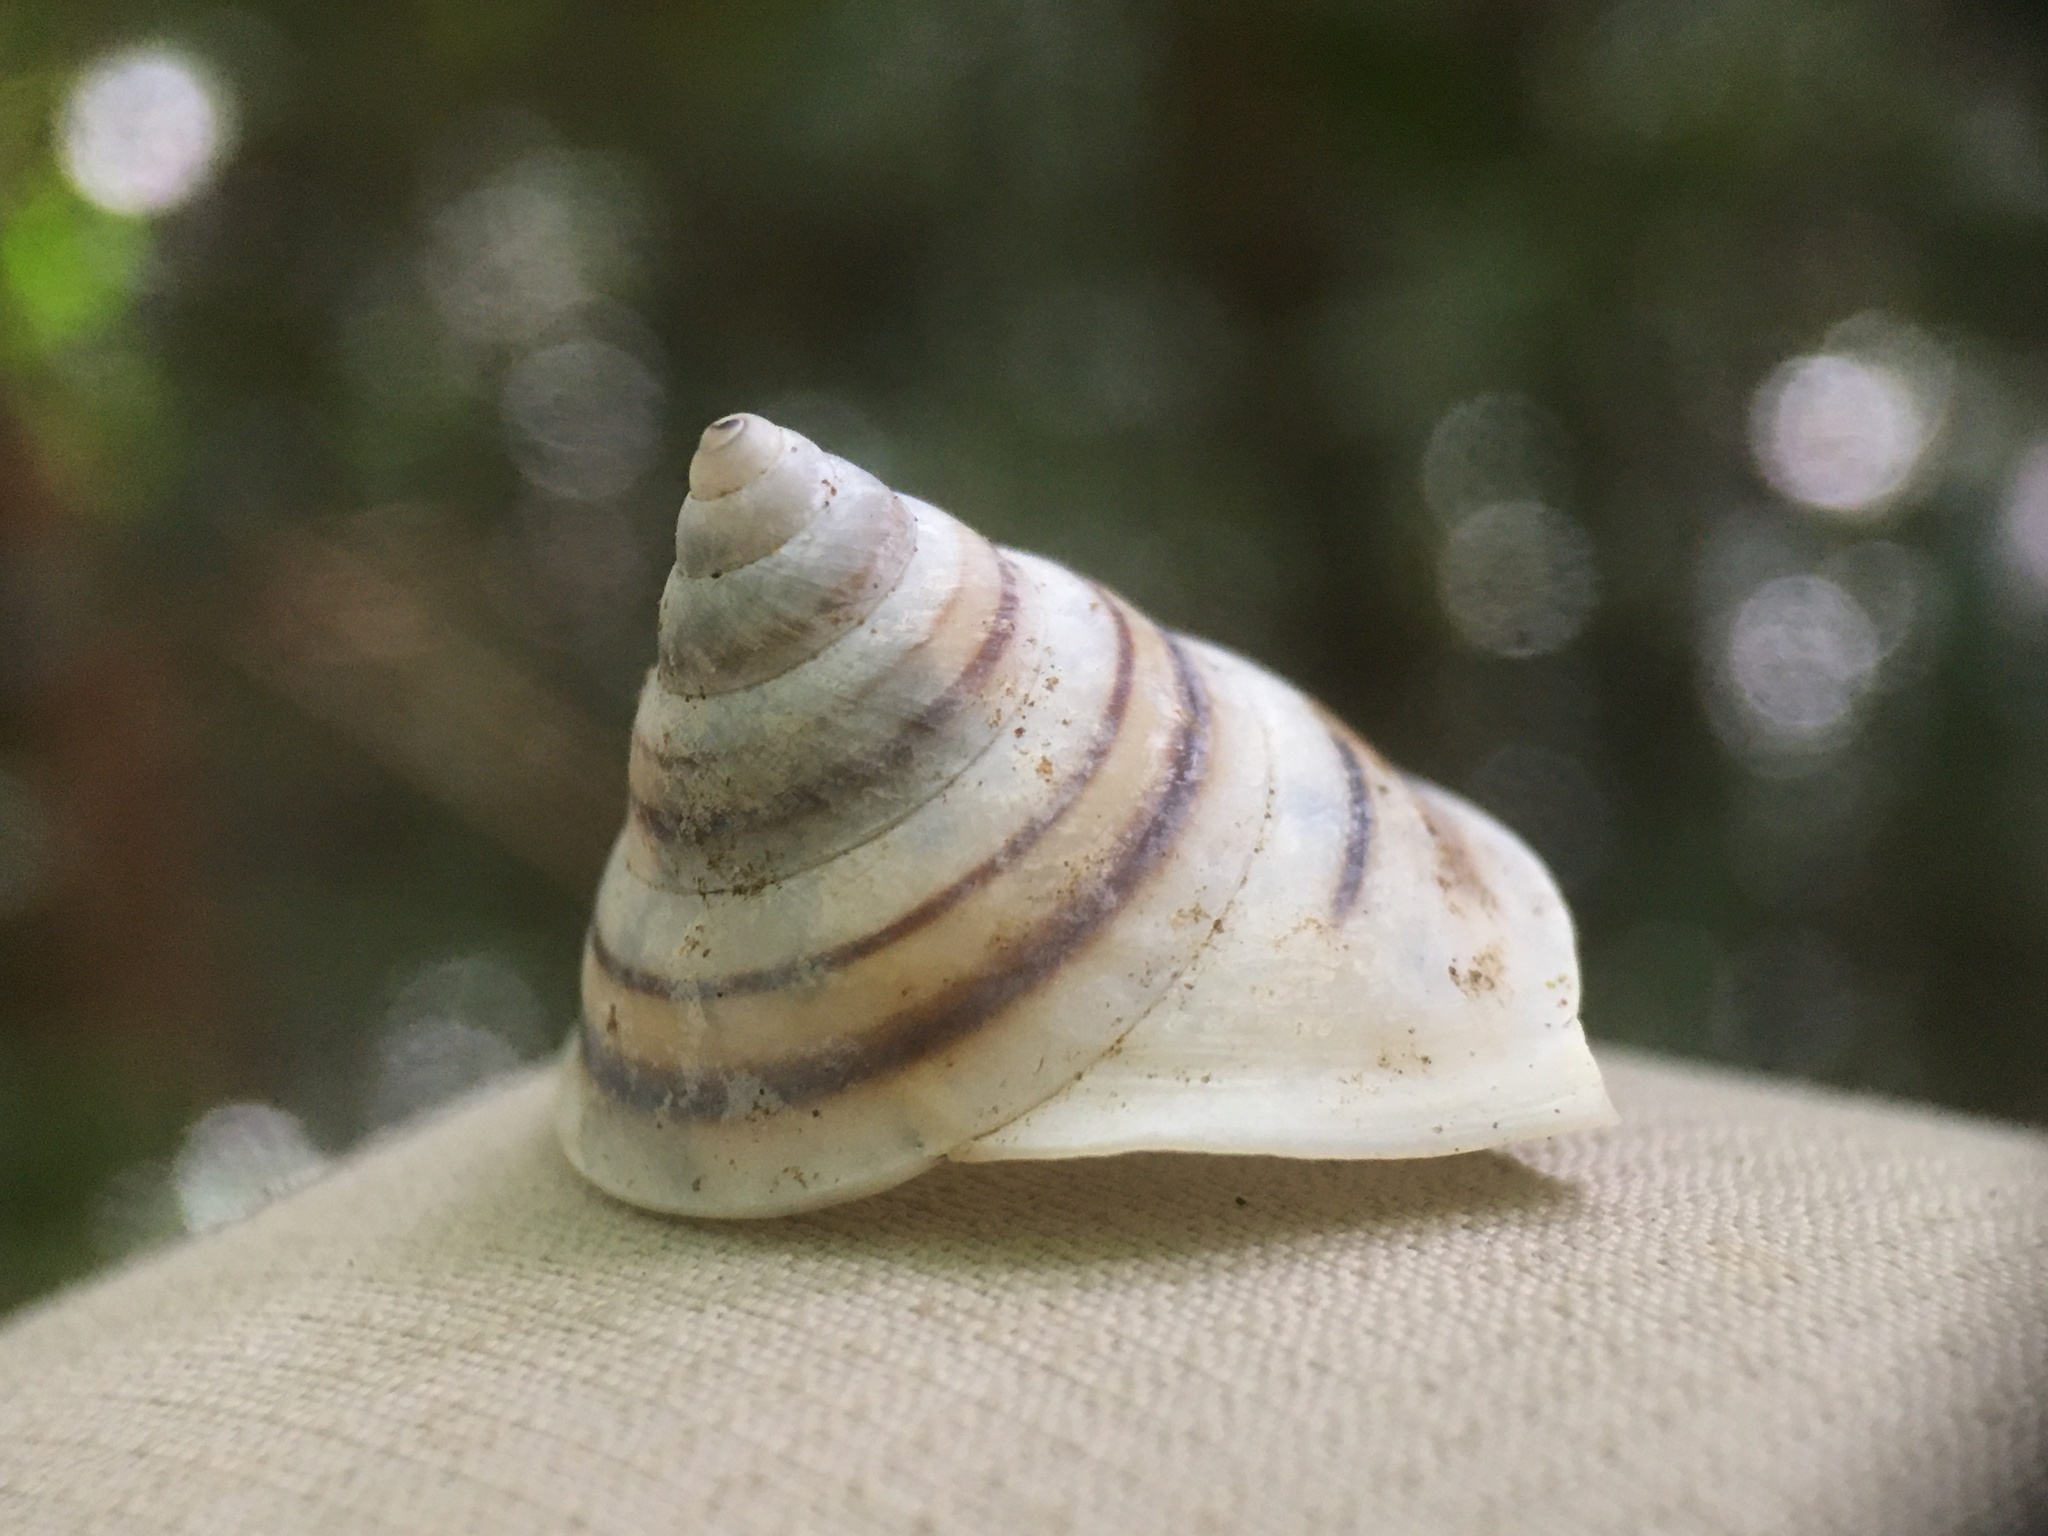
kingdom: Animalia
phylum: Mollusca
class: Gastropoda
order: Stylommatophora
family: Bulimulidae
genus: Oxychona
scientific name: Oxychona bifasciata
